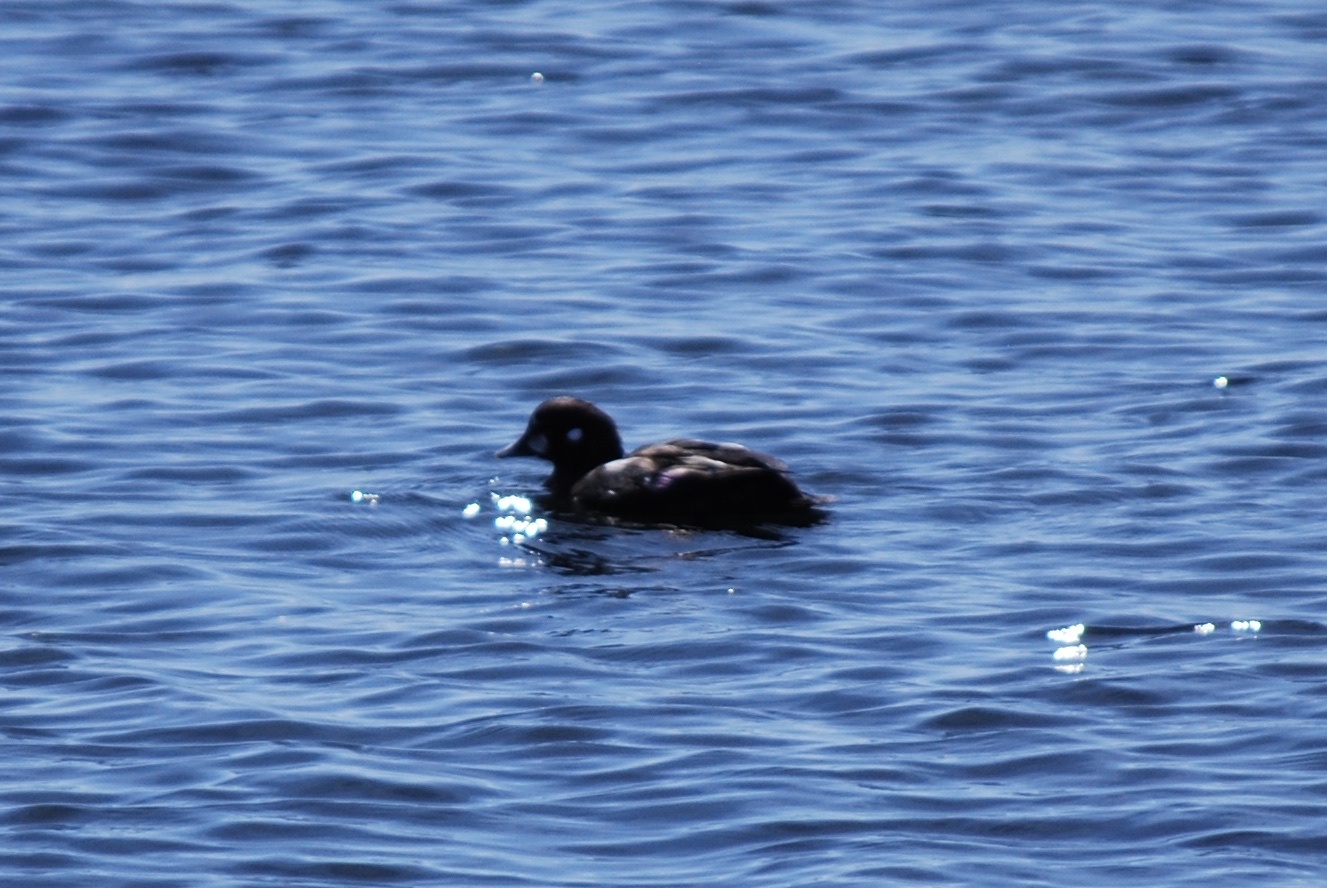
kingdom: Animalia
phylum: Chordata
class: Aves
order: Anseriformes
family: Anatidae
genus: Histrionicus
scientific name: Histrionicus histrionicus
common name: Harlequin duck
